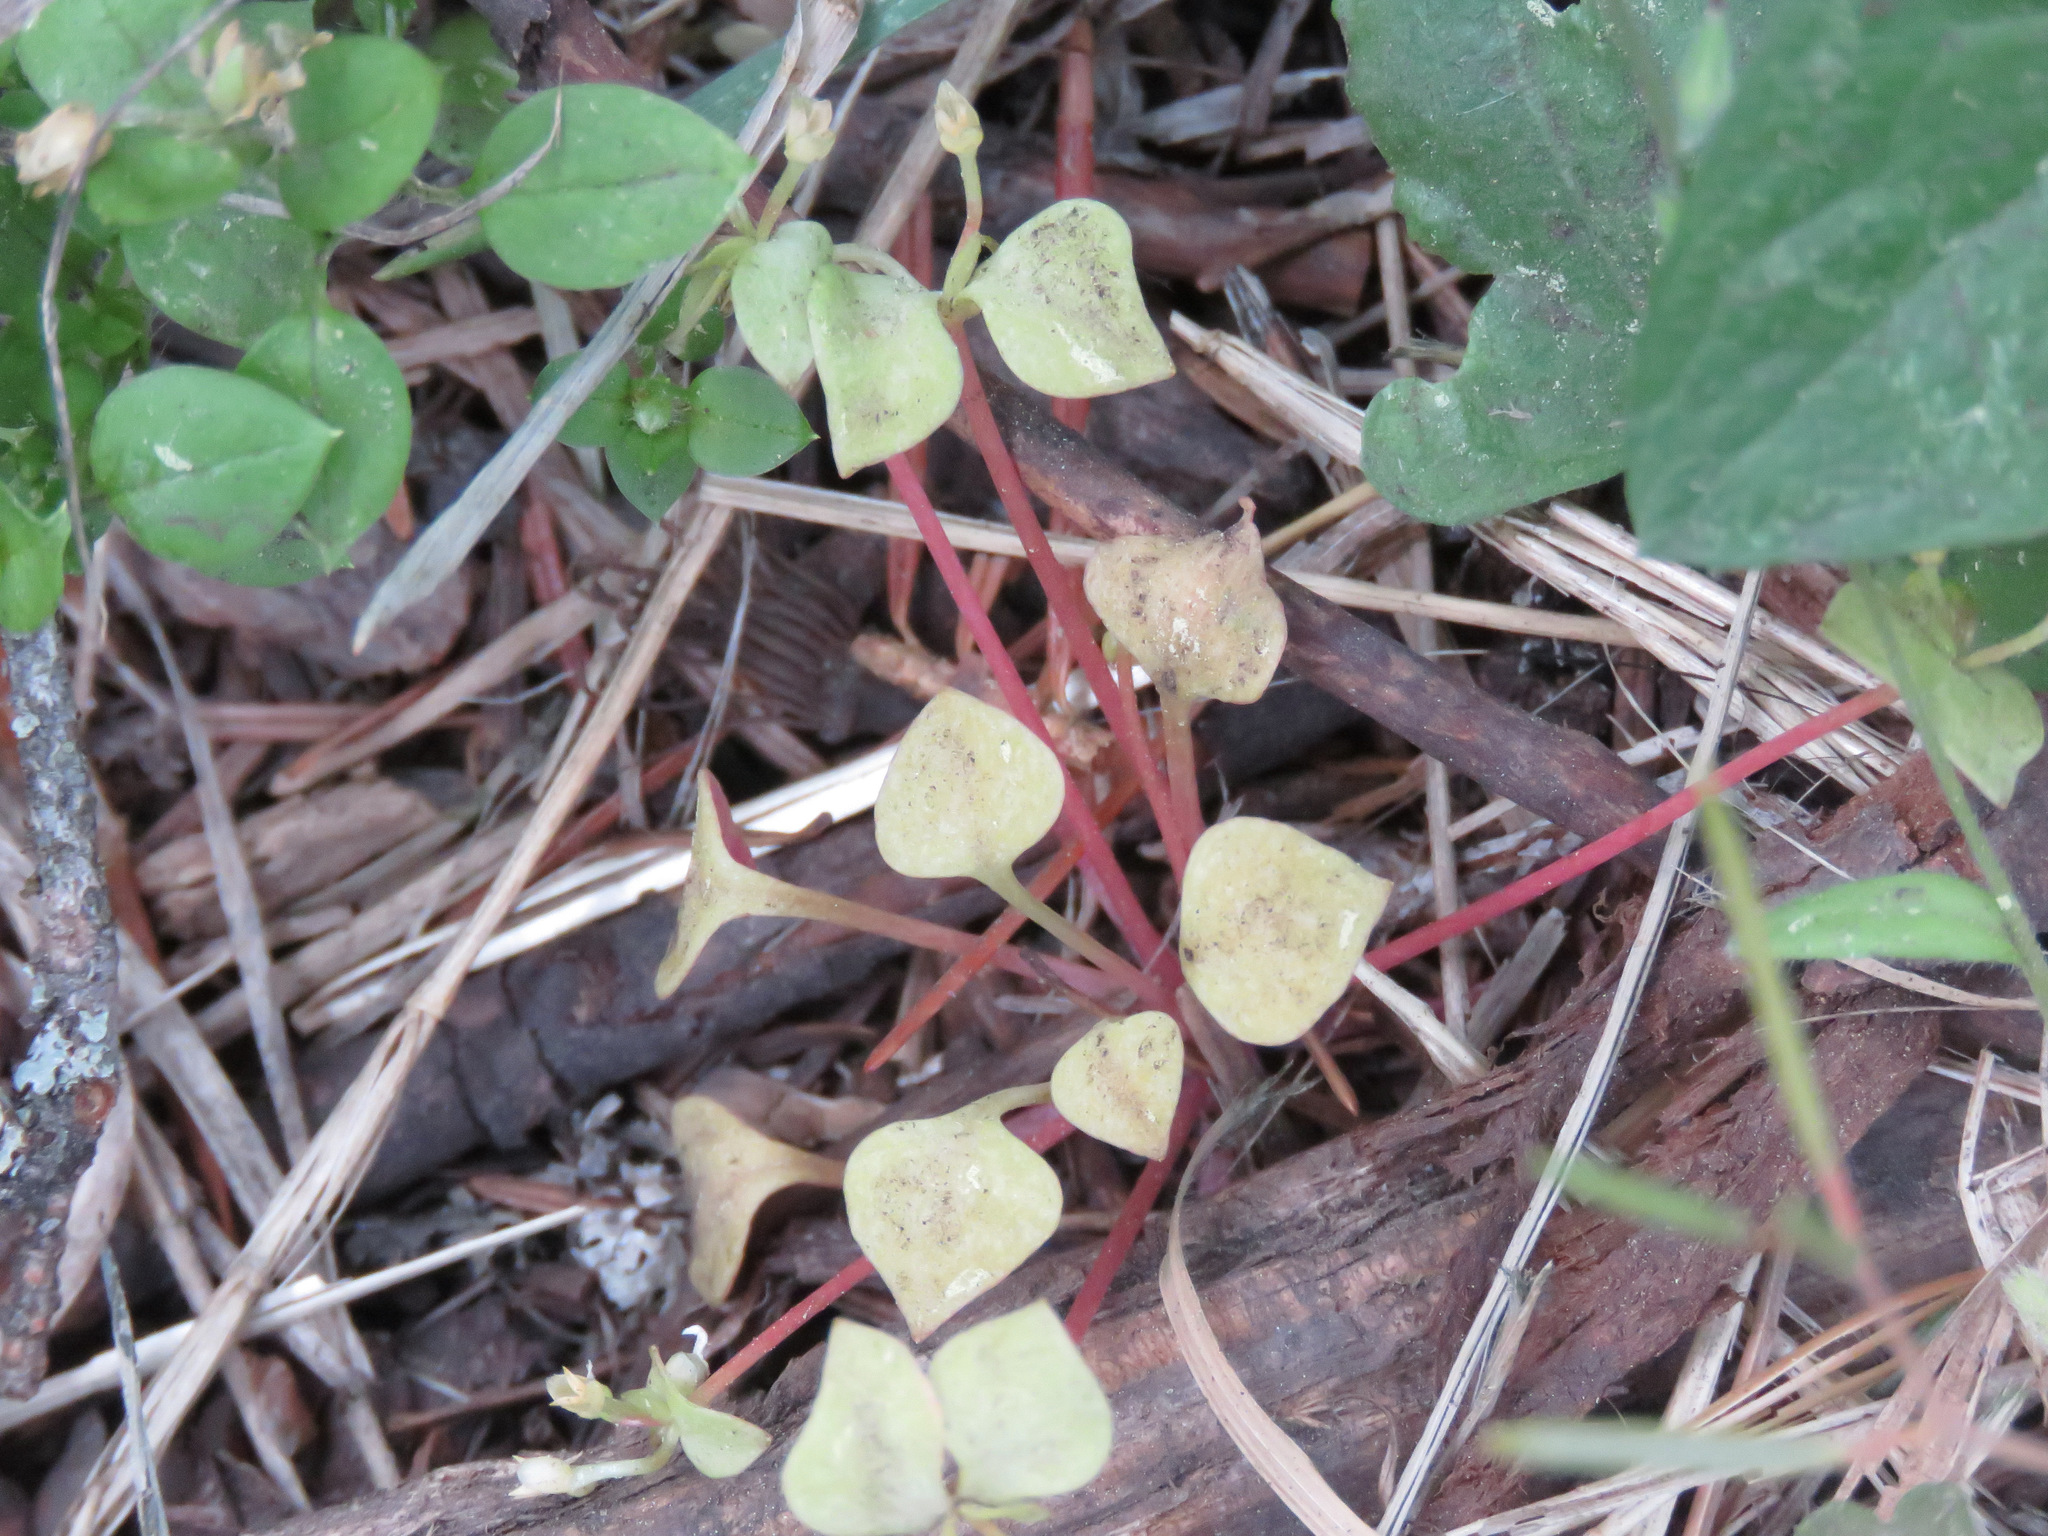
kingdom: Plantae
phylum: Tracheophyta
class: Magnoliopsida
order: Caryophyllales
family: Montiaceae
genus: Claytonia
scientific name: Claytonia rubra
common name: Erubescent miner's-lettuce
